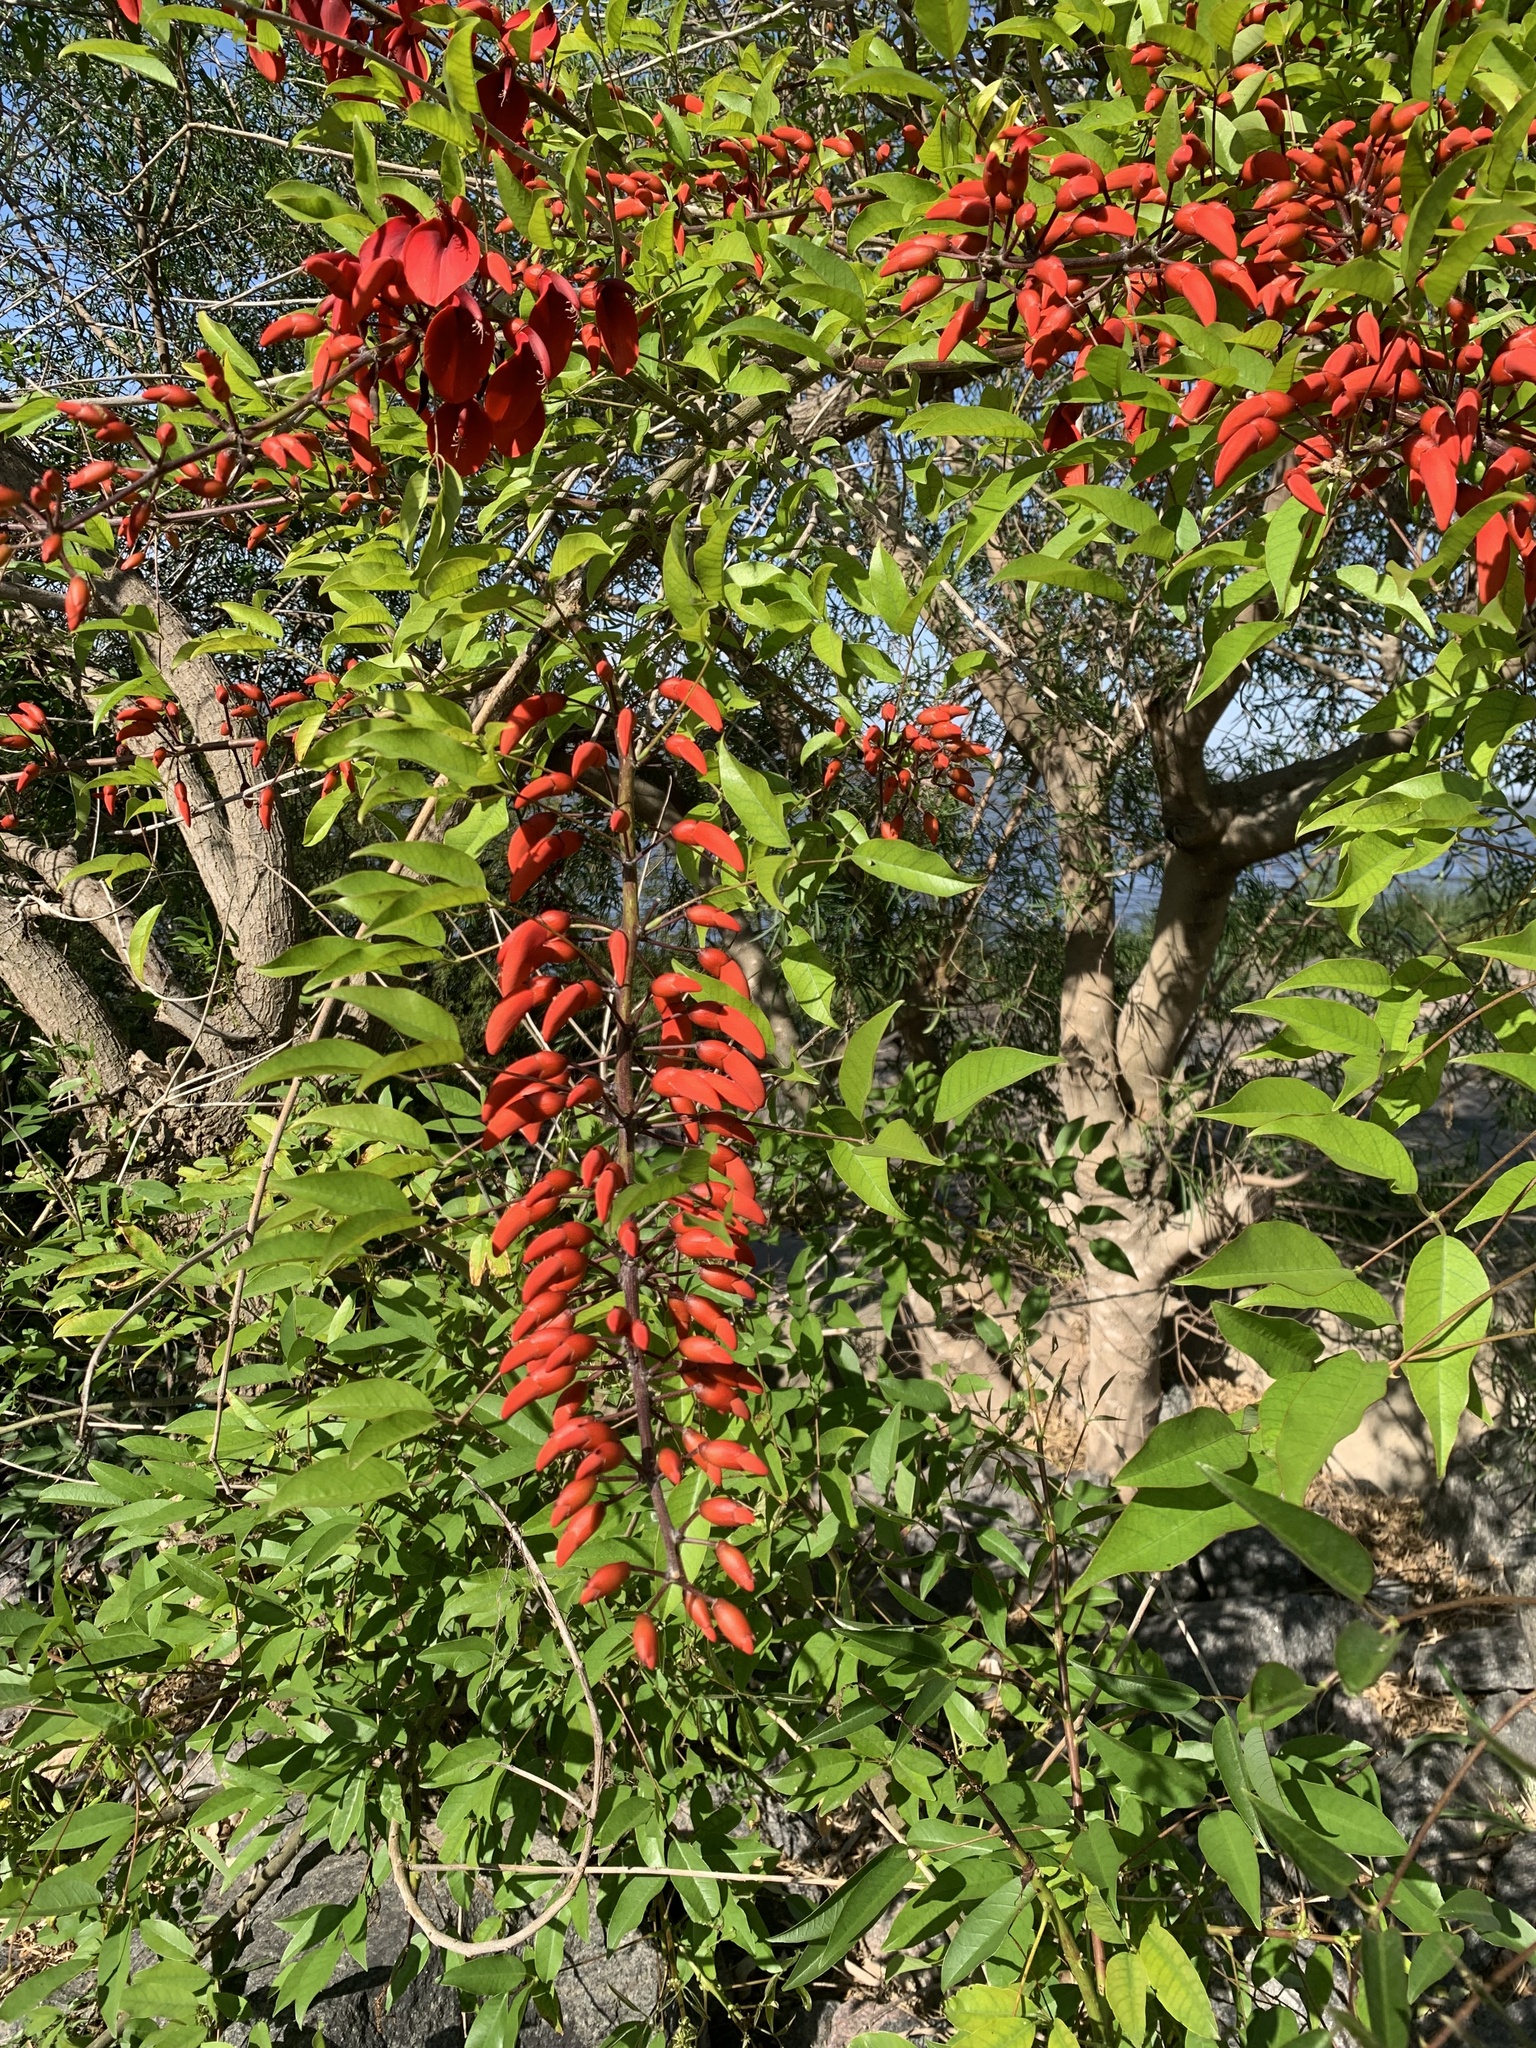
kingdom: Plantae
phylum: Tracheophyta
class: Magnoliopsida
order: Fabales
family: Fabaceae
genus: Erythrina
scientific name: Erythrina crista-galli
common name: Cockspur coral tree
